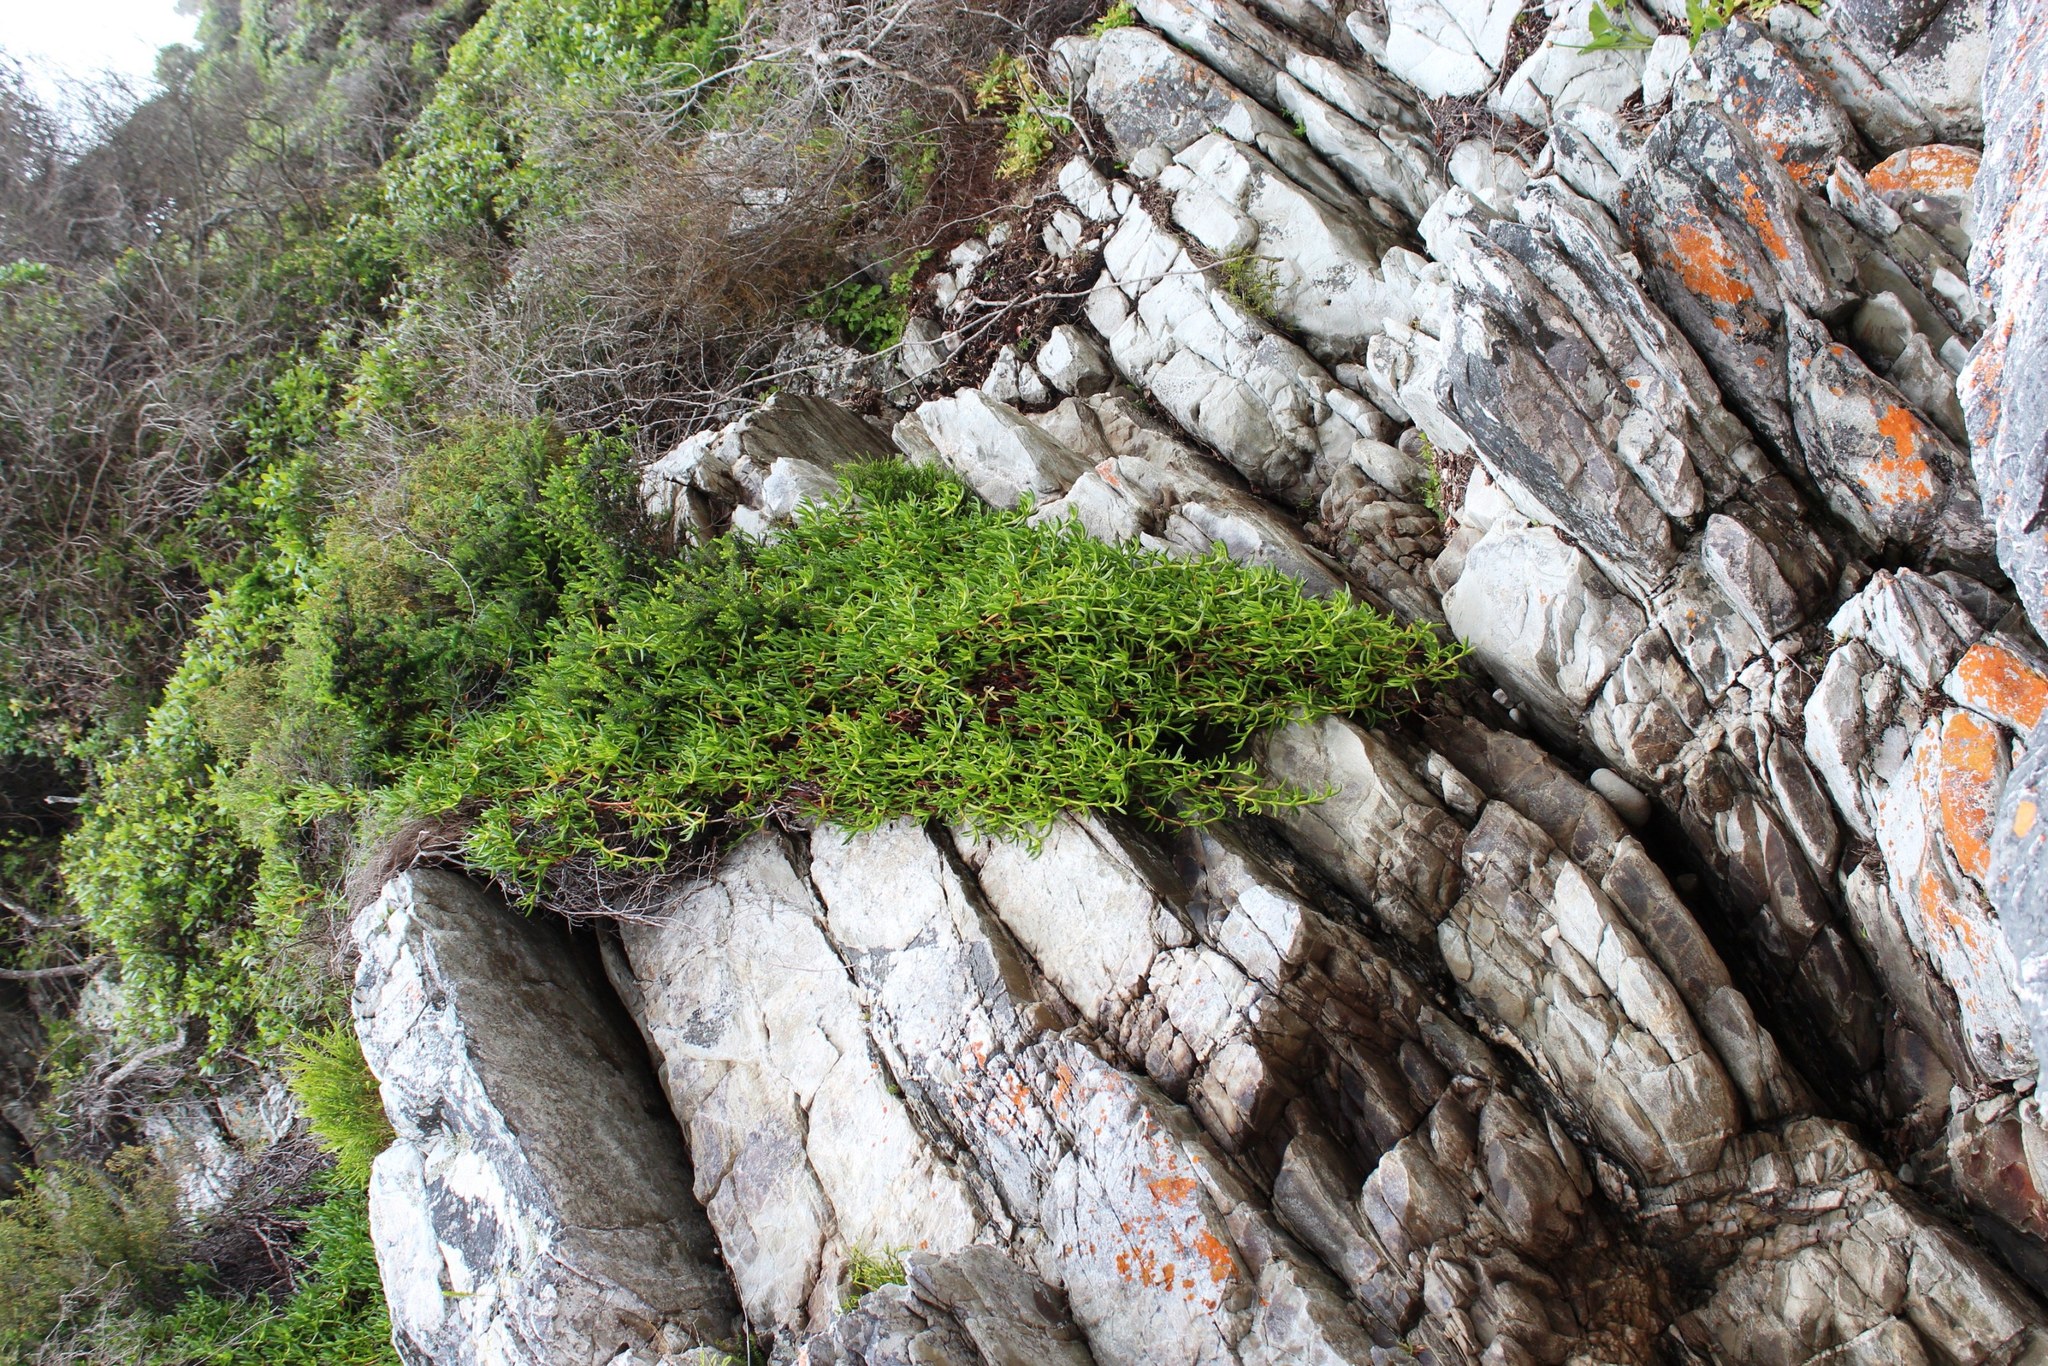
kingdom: Plantae
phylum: Tracheophyta
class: Magnoliopsida
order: Caryophyllales
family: Aizoaceae
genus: Carpobrotus
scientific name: Carpobrotus edulis
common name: Hottentot-fig
